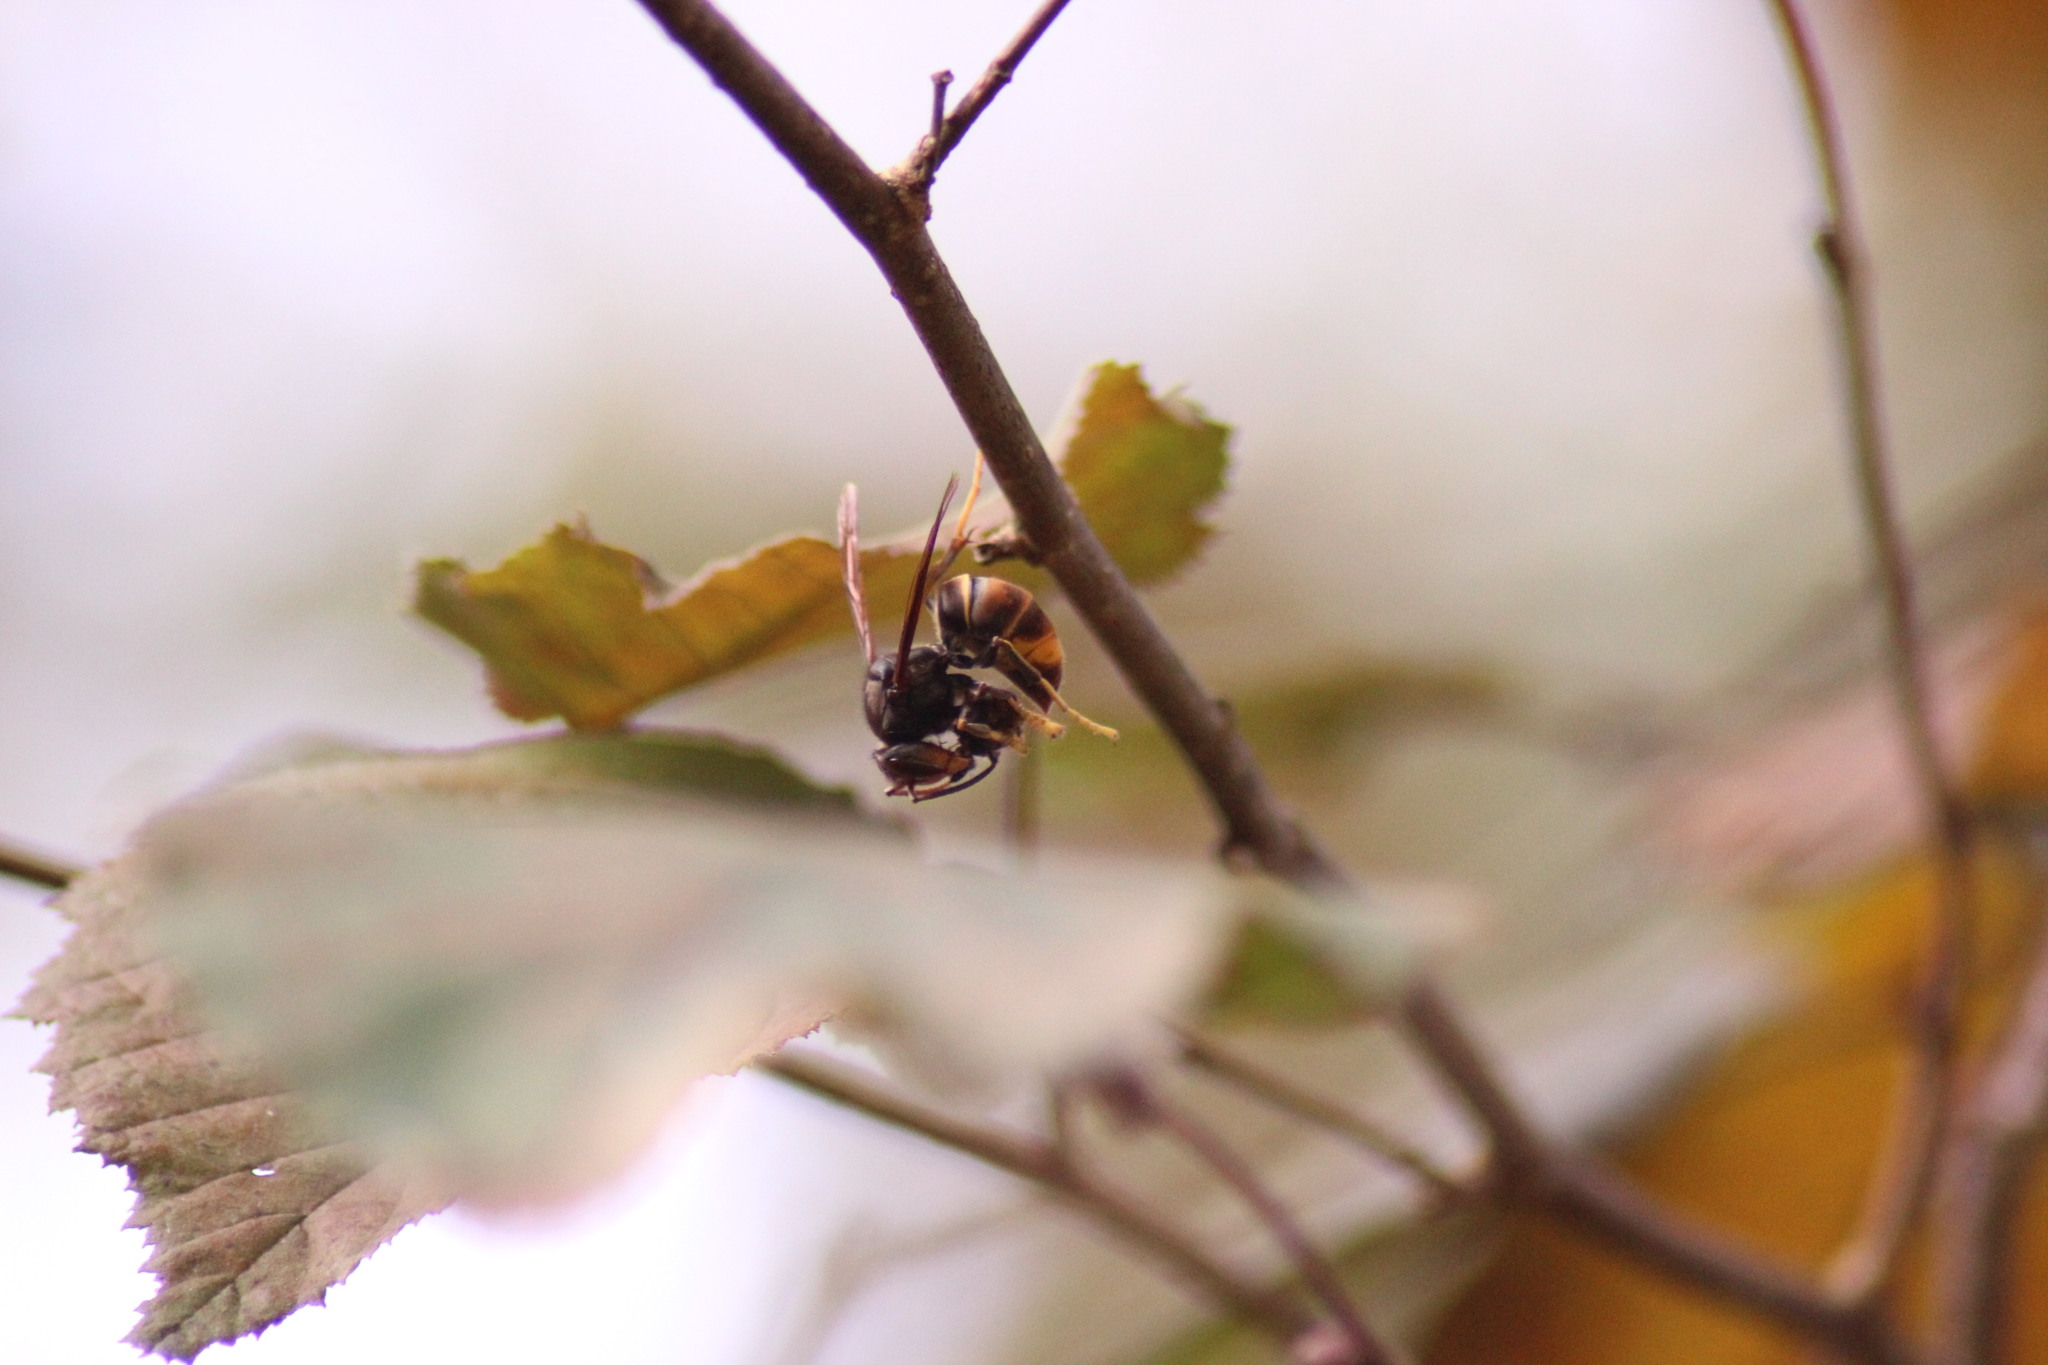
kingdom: Animalia
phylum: Arthropoda
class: Insecta
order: Hymenoptera
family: Vespidae
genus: Vespa
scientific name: Vespa velutina
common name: Asian hornet
